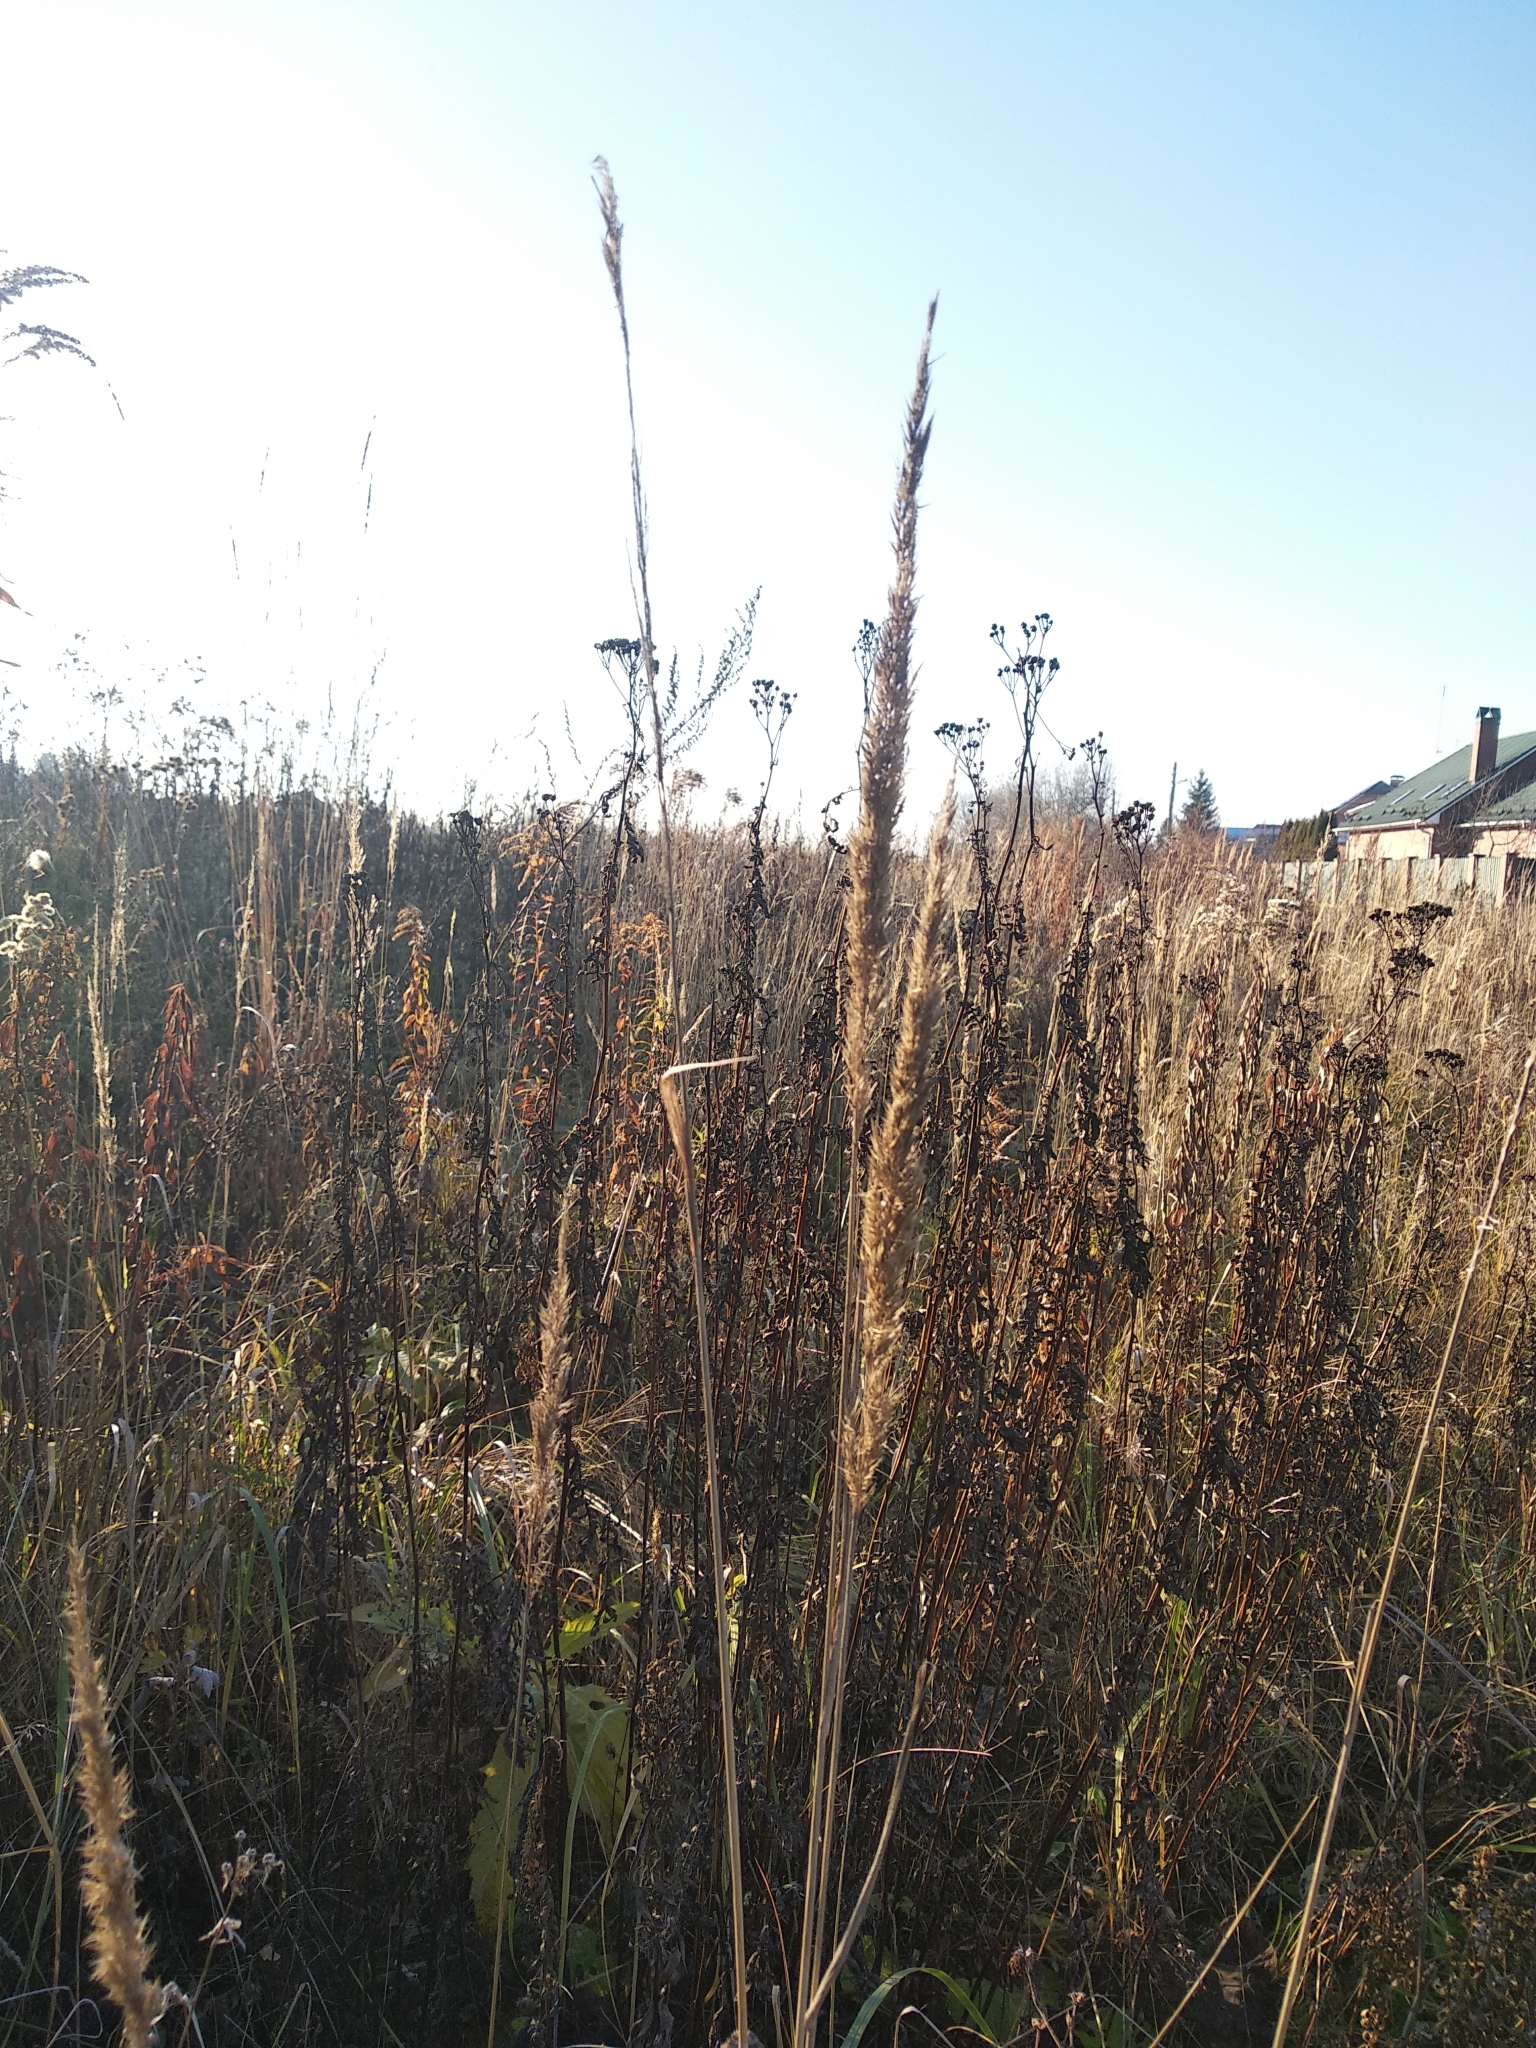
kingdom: Plantae
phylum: Tracheophyta
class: Liliopsida
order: Poales
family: Poaceae
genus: Calamagrostis
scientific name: Calamagrostis epigejos
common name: Wood small-reed
